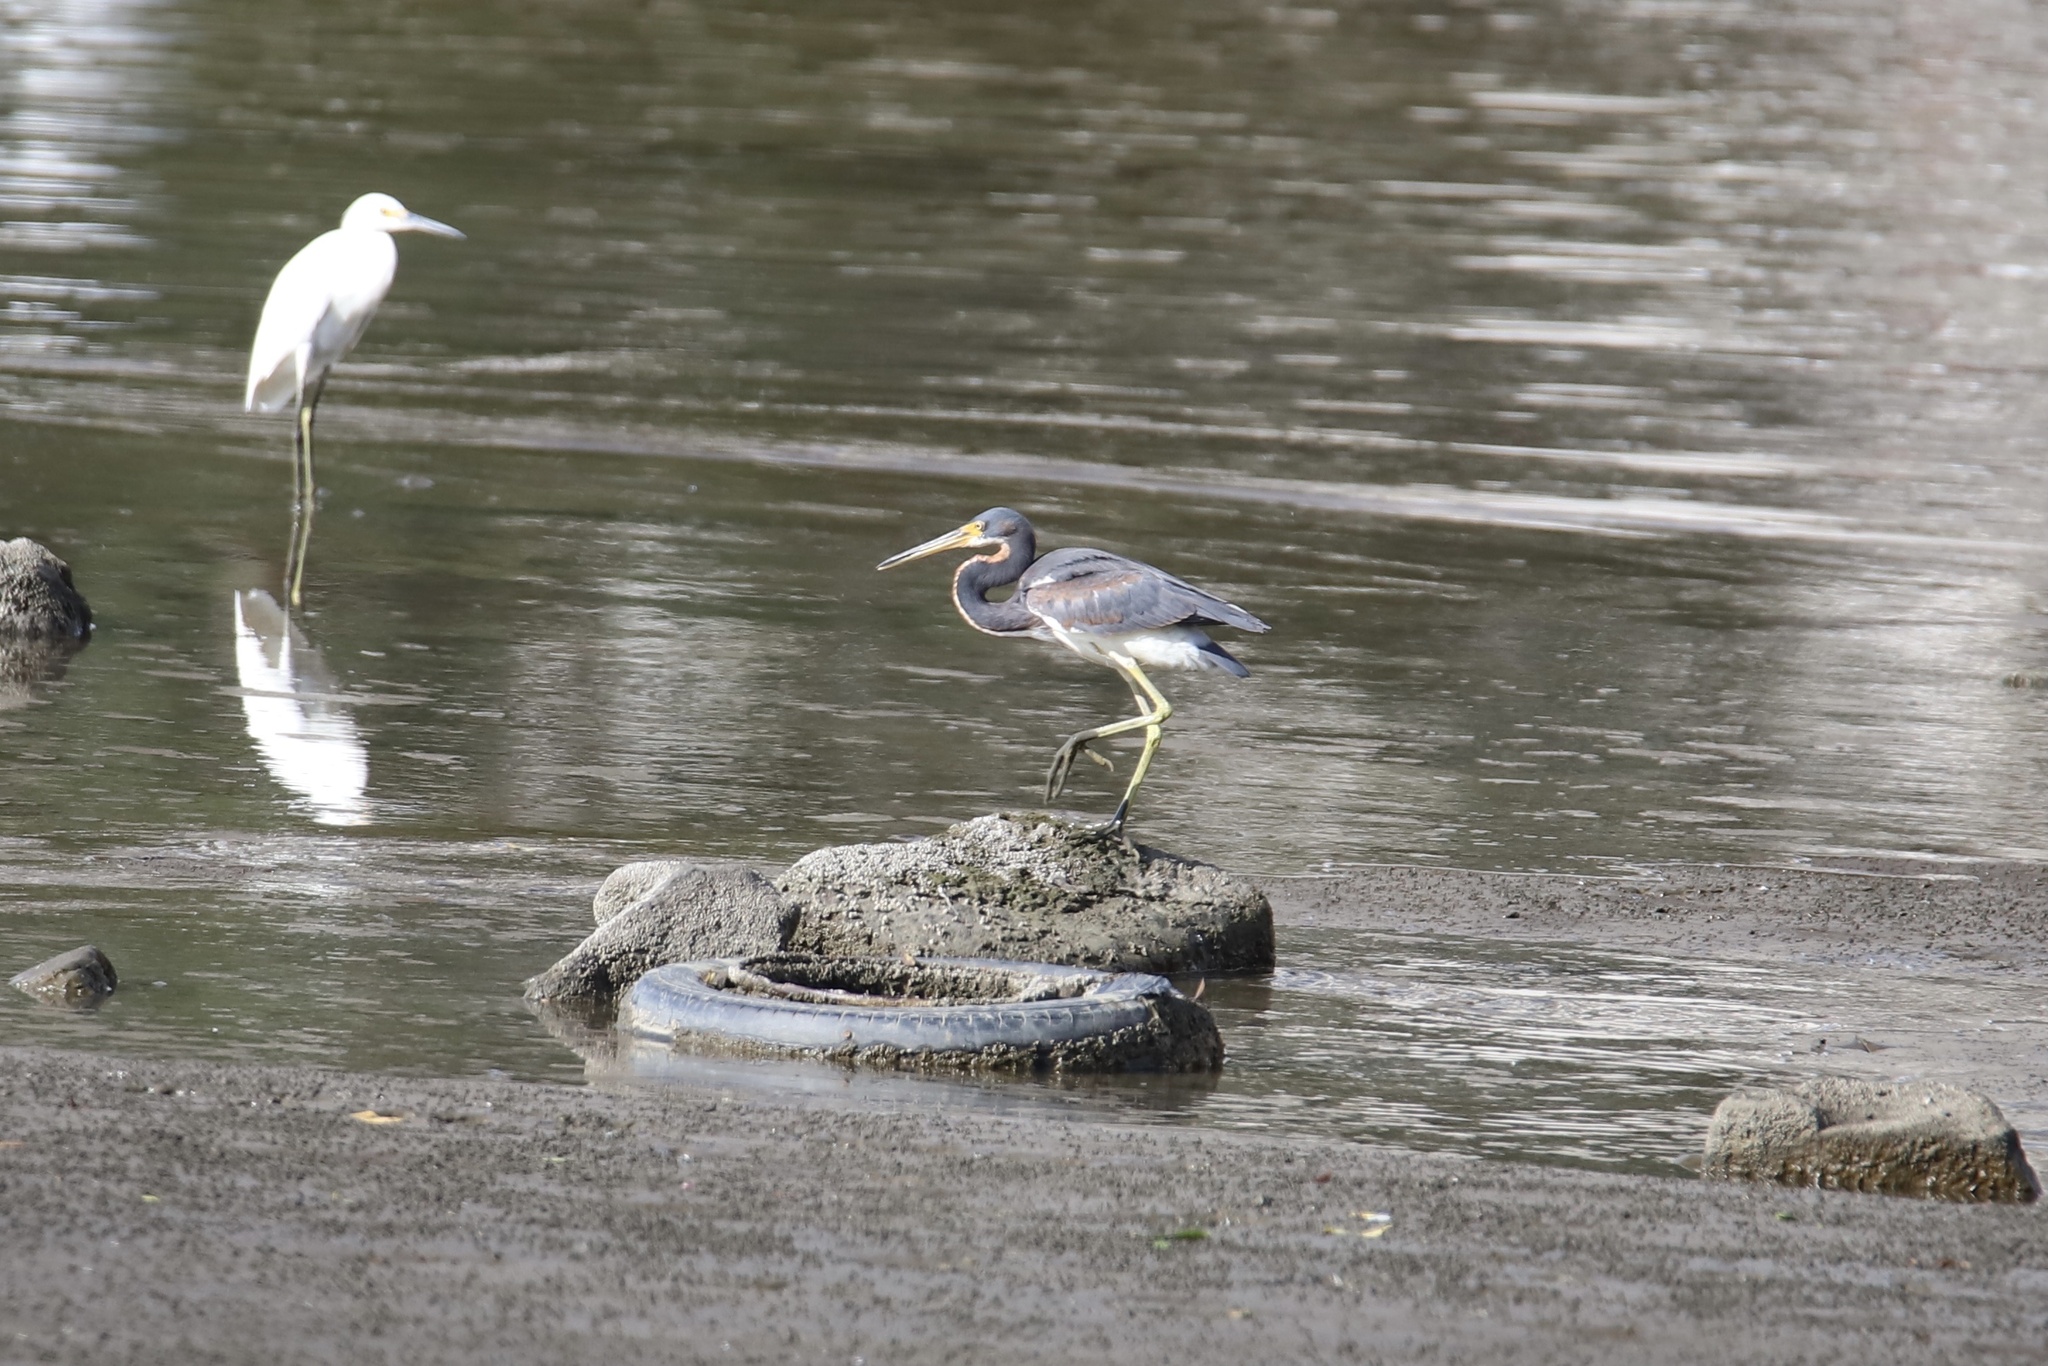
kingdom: Animalia
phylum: Chordata
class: Aves
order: Pelecaniformes
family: Ardeidae
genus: Egretta
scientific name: Egretta tricolor
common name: Tricolored heron
